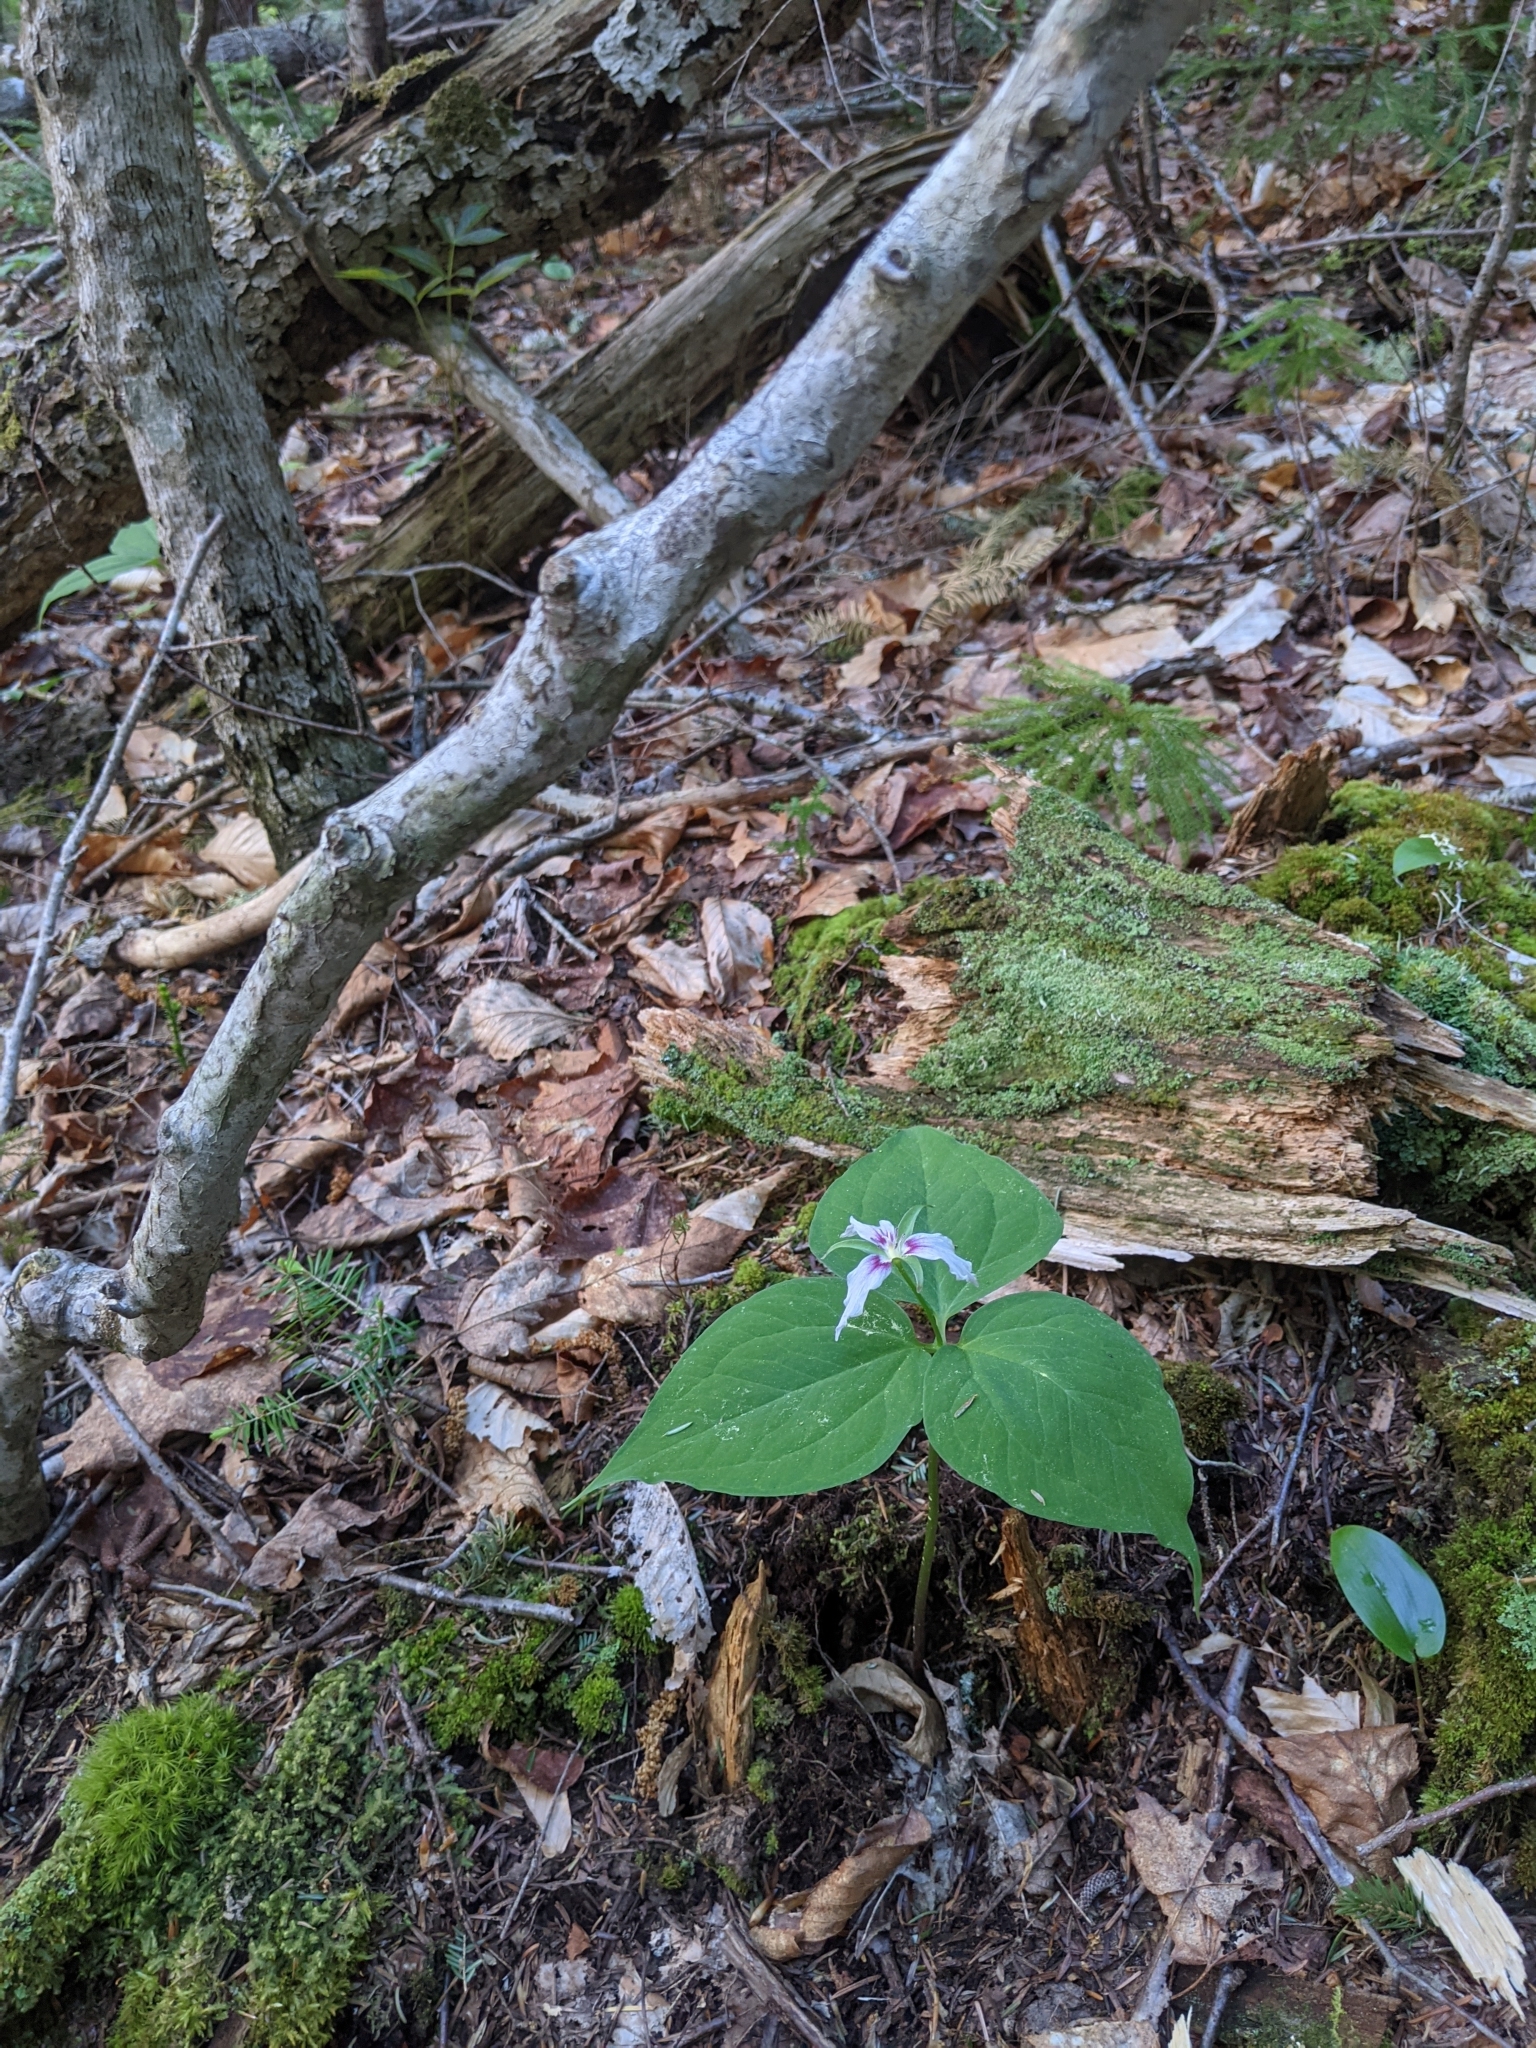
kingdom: Plantae
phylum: Tracheophyta
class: Liliopsida
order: Liliales
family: Melanthiaceae
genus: Trillium
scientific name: Trillium undulatum
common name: Paint trillium
